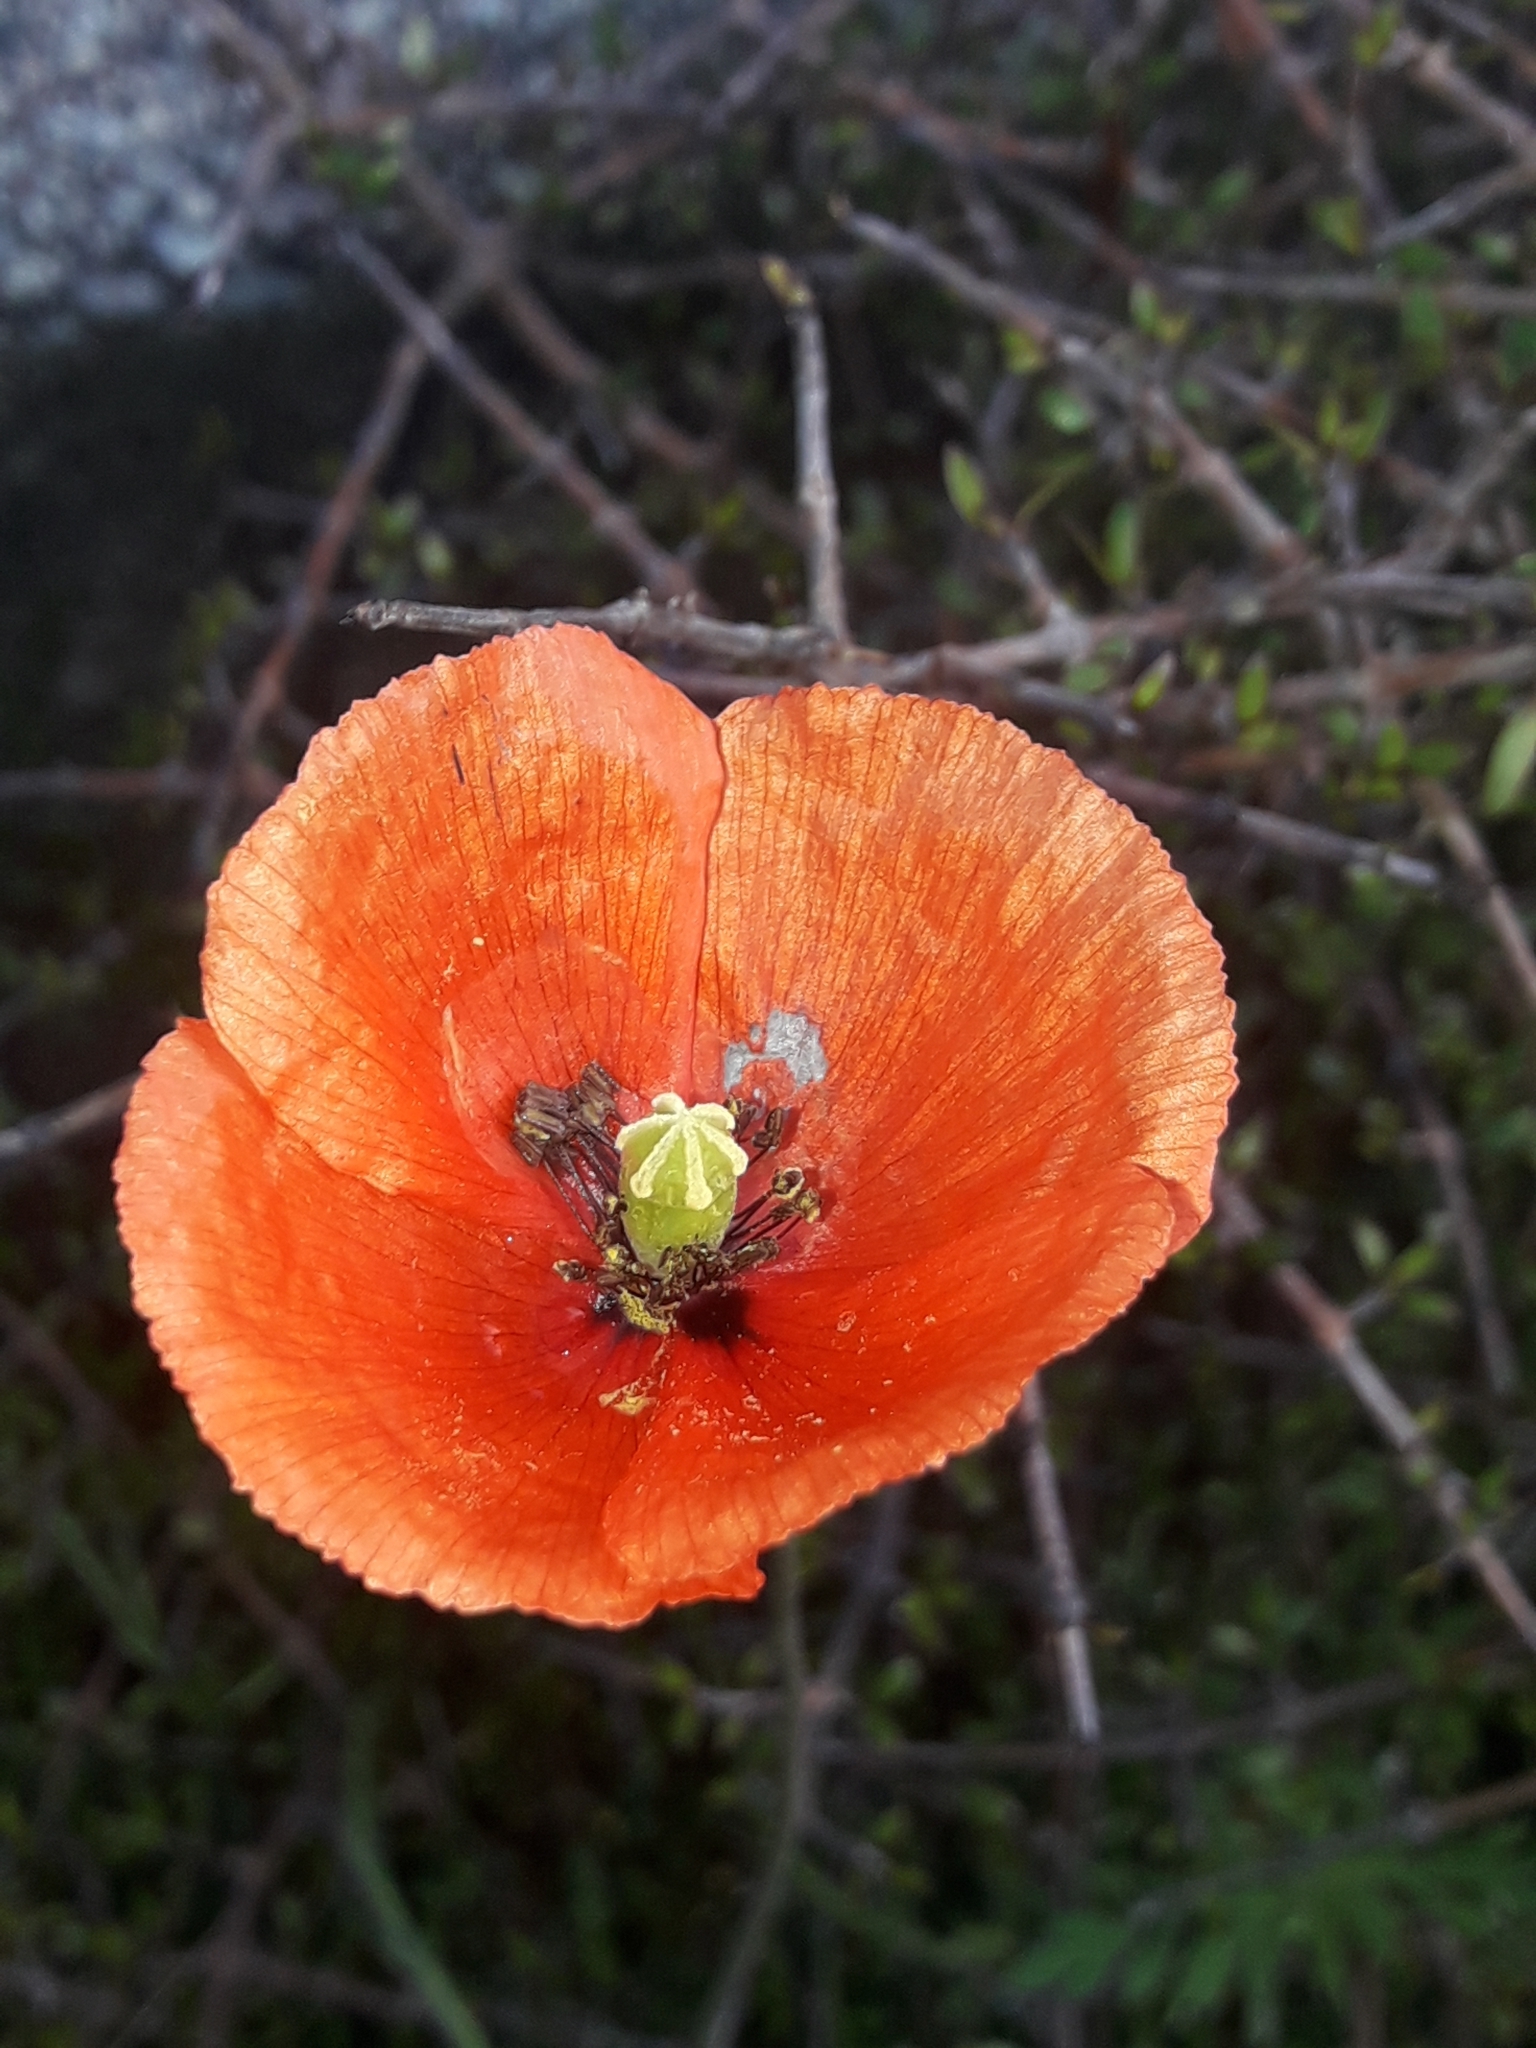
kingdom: Plantae
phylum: Tracheophyta
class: Magnoliopsida
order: Ranunculales
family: Papaveraceae
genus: Papaver
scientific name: Papaver rhoeas
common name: Corn poppy
